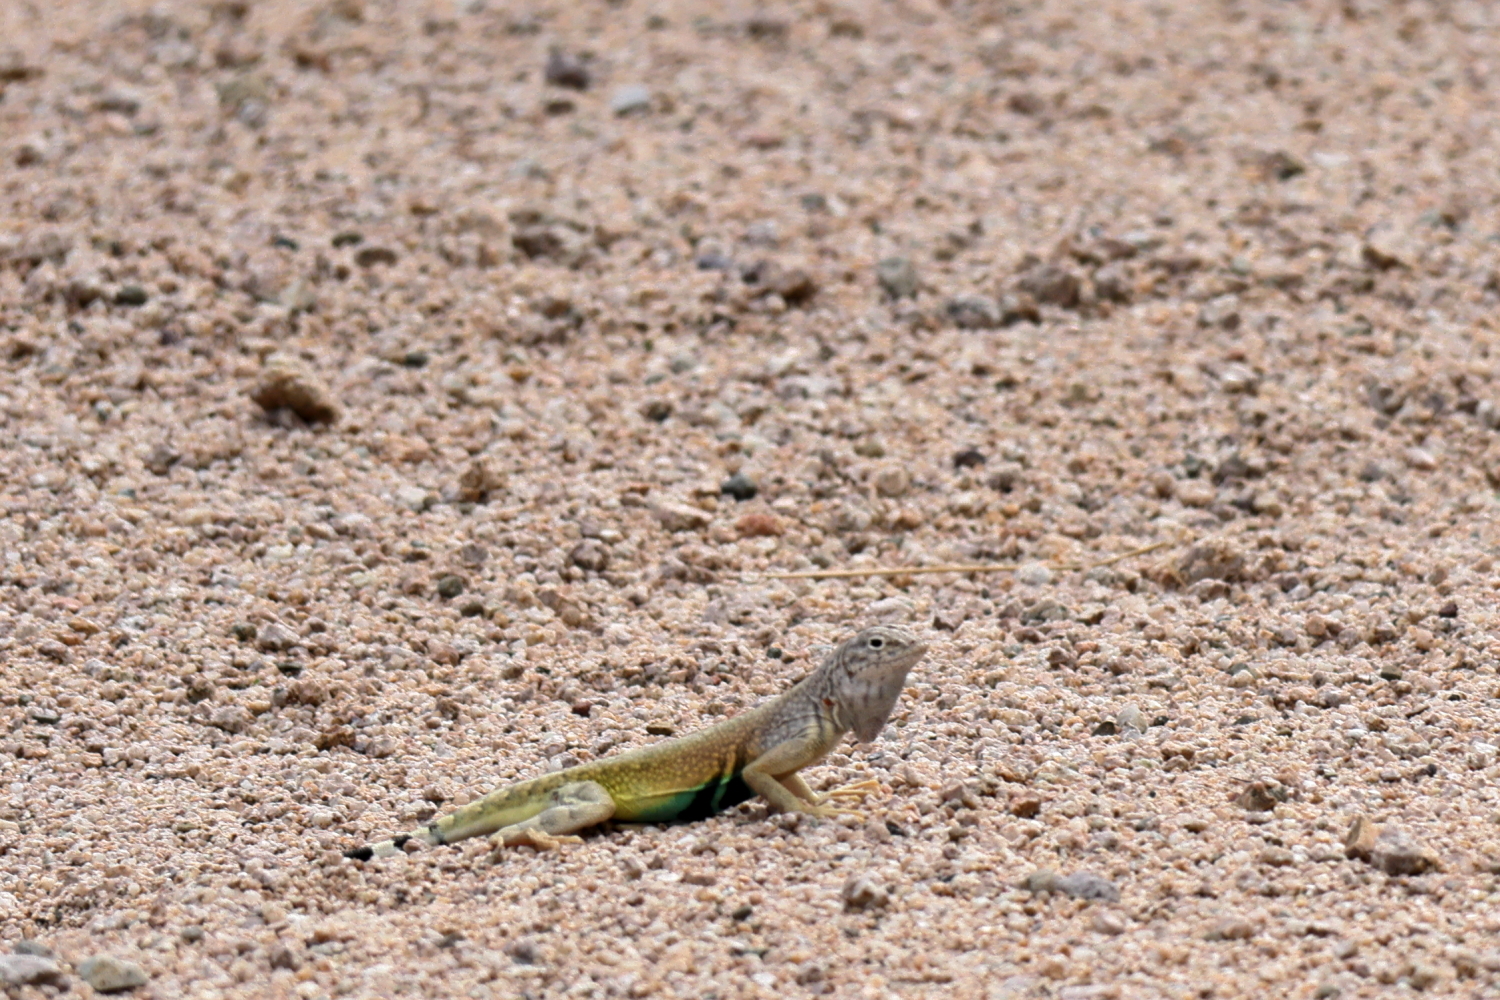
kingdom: Animalia
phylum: Chordata
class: Squamata
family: Phrynosomatidae
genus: Callisaurus
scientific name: Callisaurus draconoides
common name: Zebra-tailed lizard
